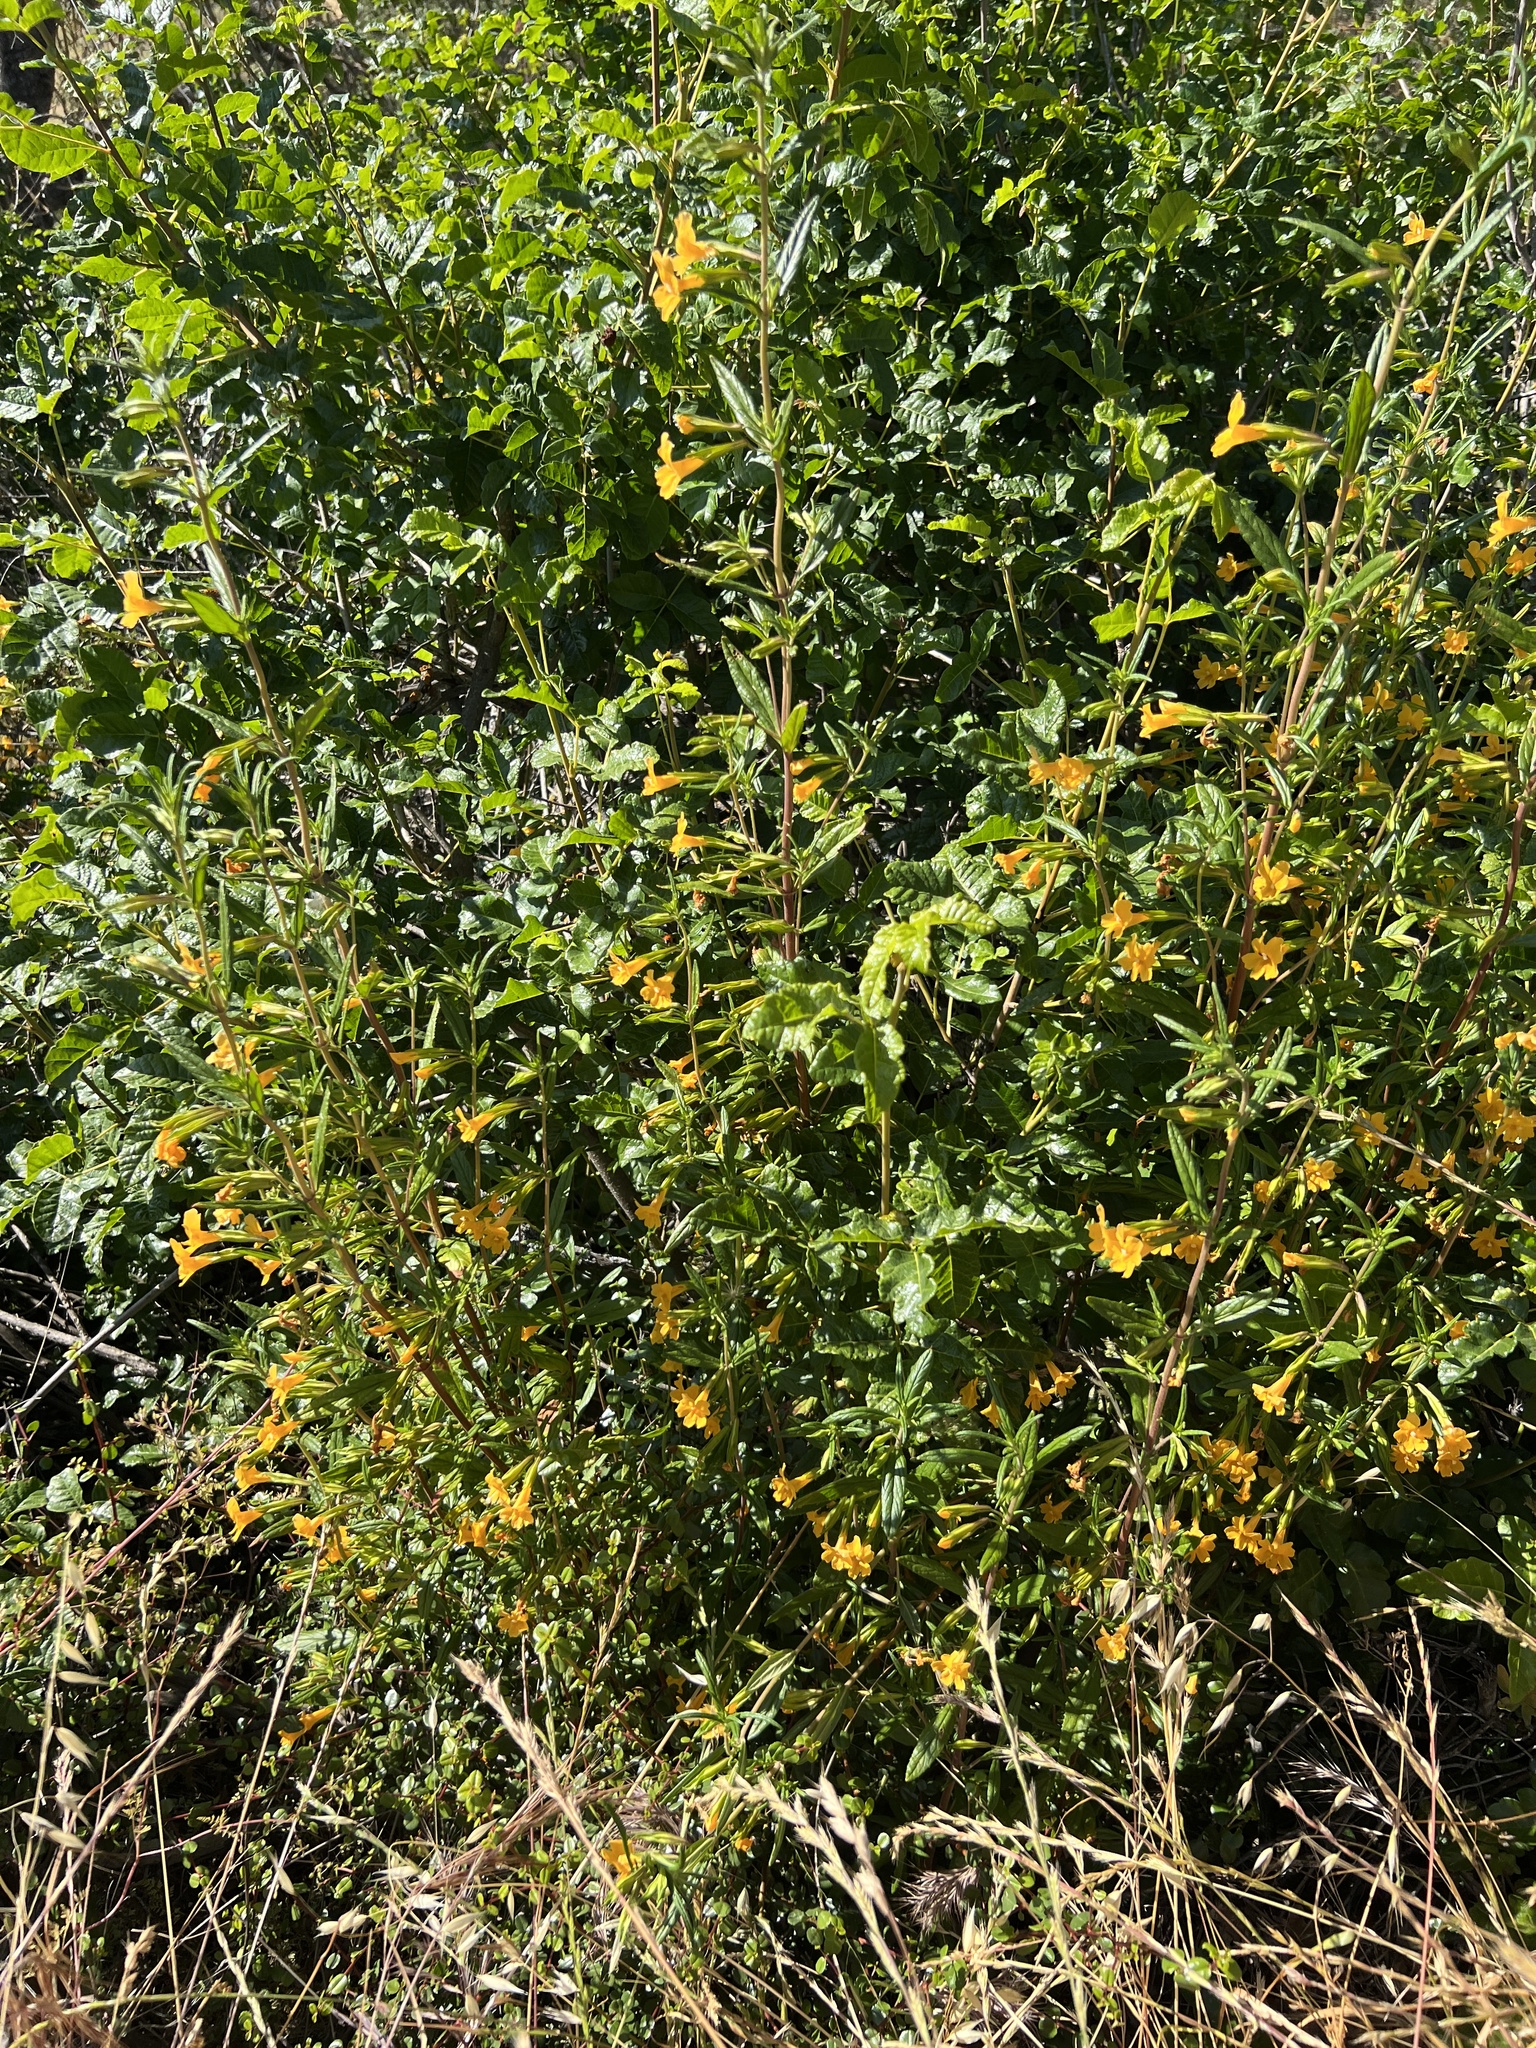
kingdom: Plantae
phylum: Tracheophyta
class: Magnoliopsida
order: Lamiales
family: Phrymaceae
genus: Diplacus
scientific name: Diplacus aurantiacus
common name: Bush monkey-flower
